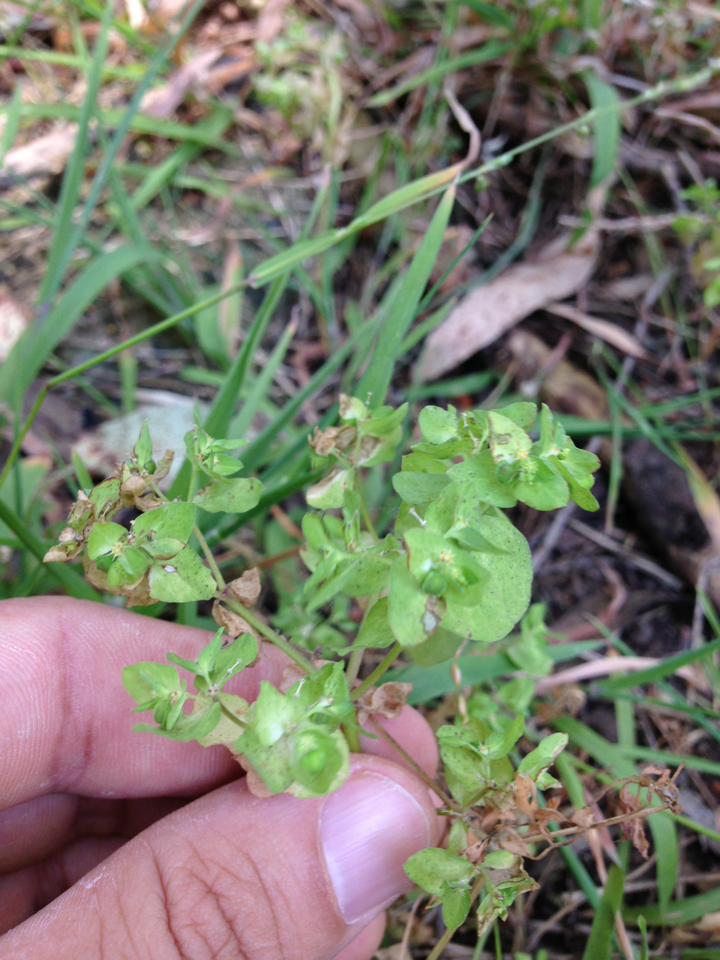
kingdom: Plantae
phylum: Tracheophyta
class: Magnoliopsida
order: Malpighiales
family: Euphorbiaceae
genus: Euphorbia
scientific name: Euphorbia peplus
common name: Petty spurge
